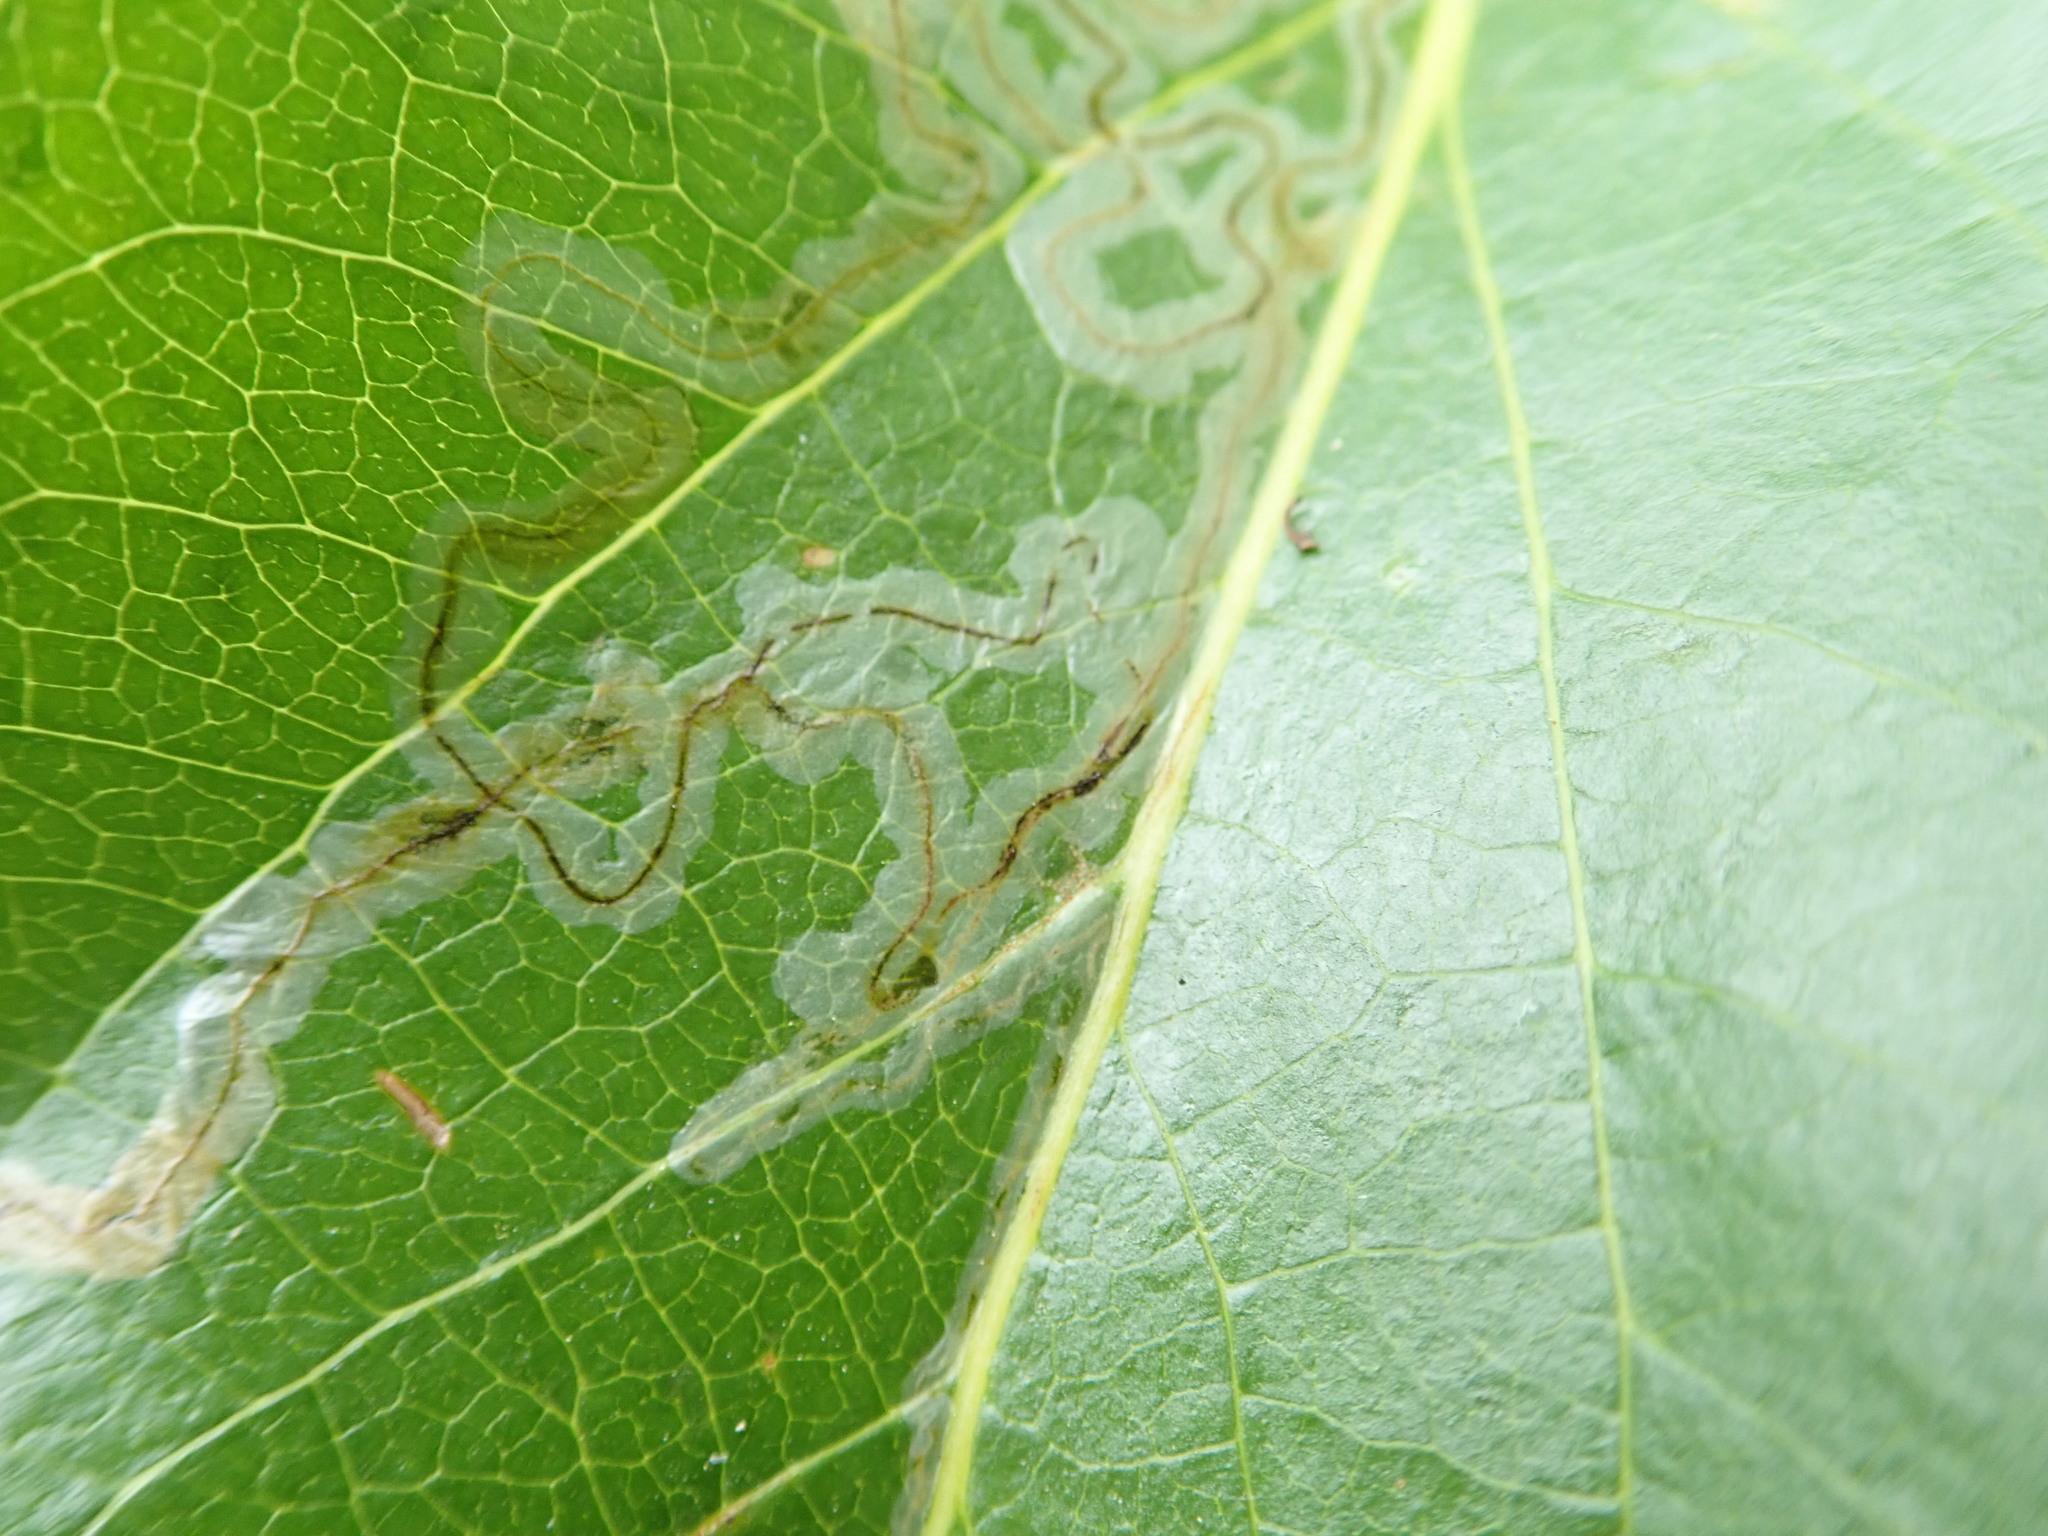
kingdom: Animalia
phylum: Arthropoda
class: Insecta
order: Lepidoptera
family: Gracillariidae
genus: Phyllocnistis
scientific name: Phyllocnistis populiella
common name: Aspen serpentine leafminer moth
